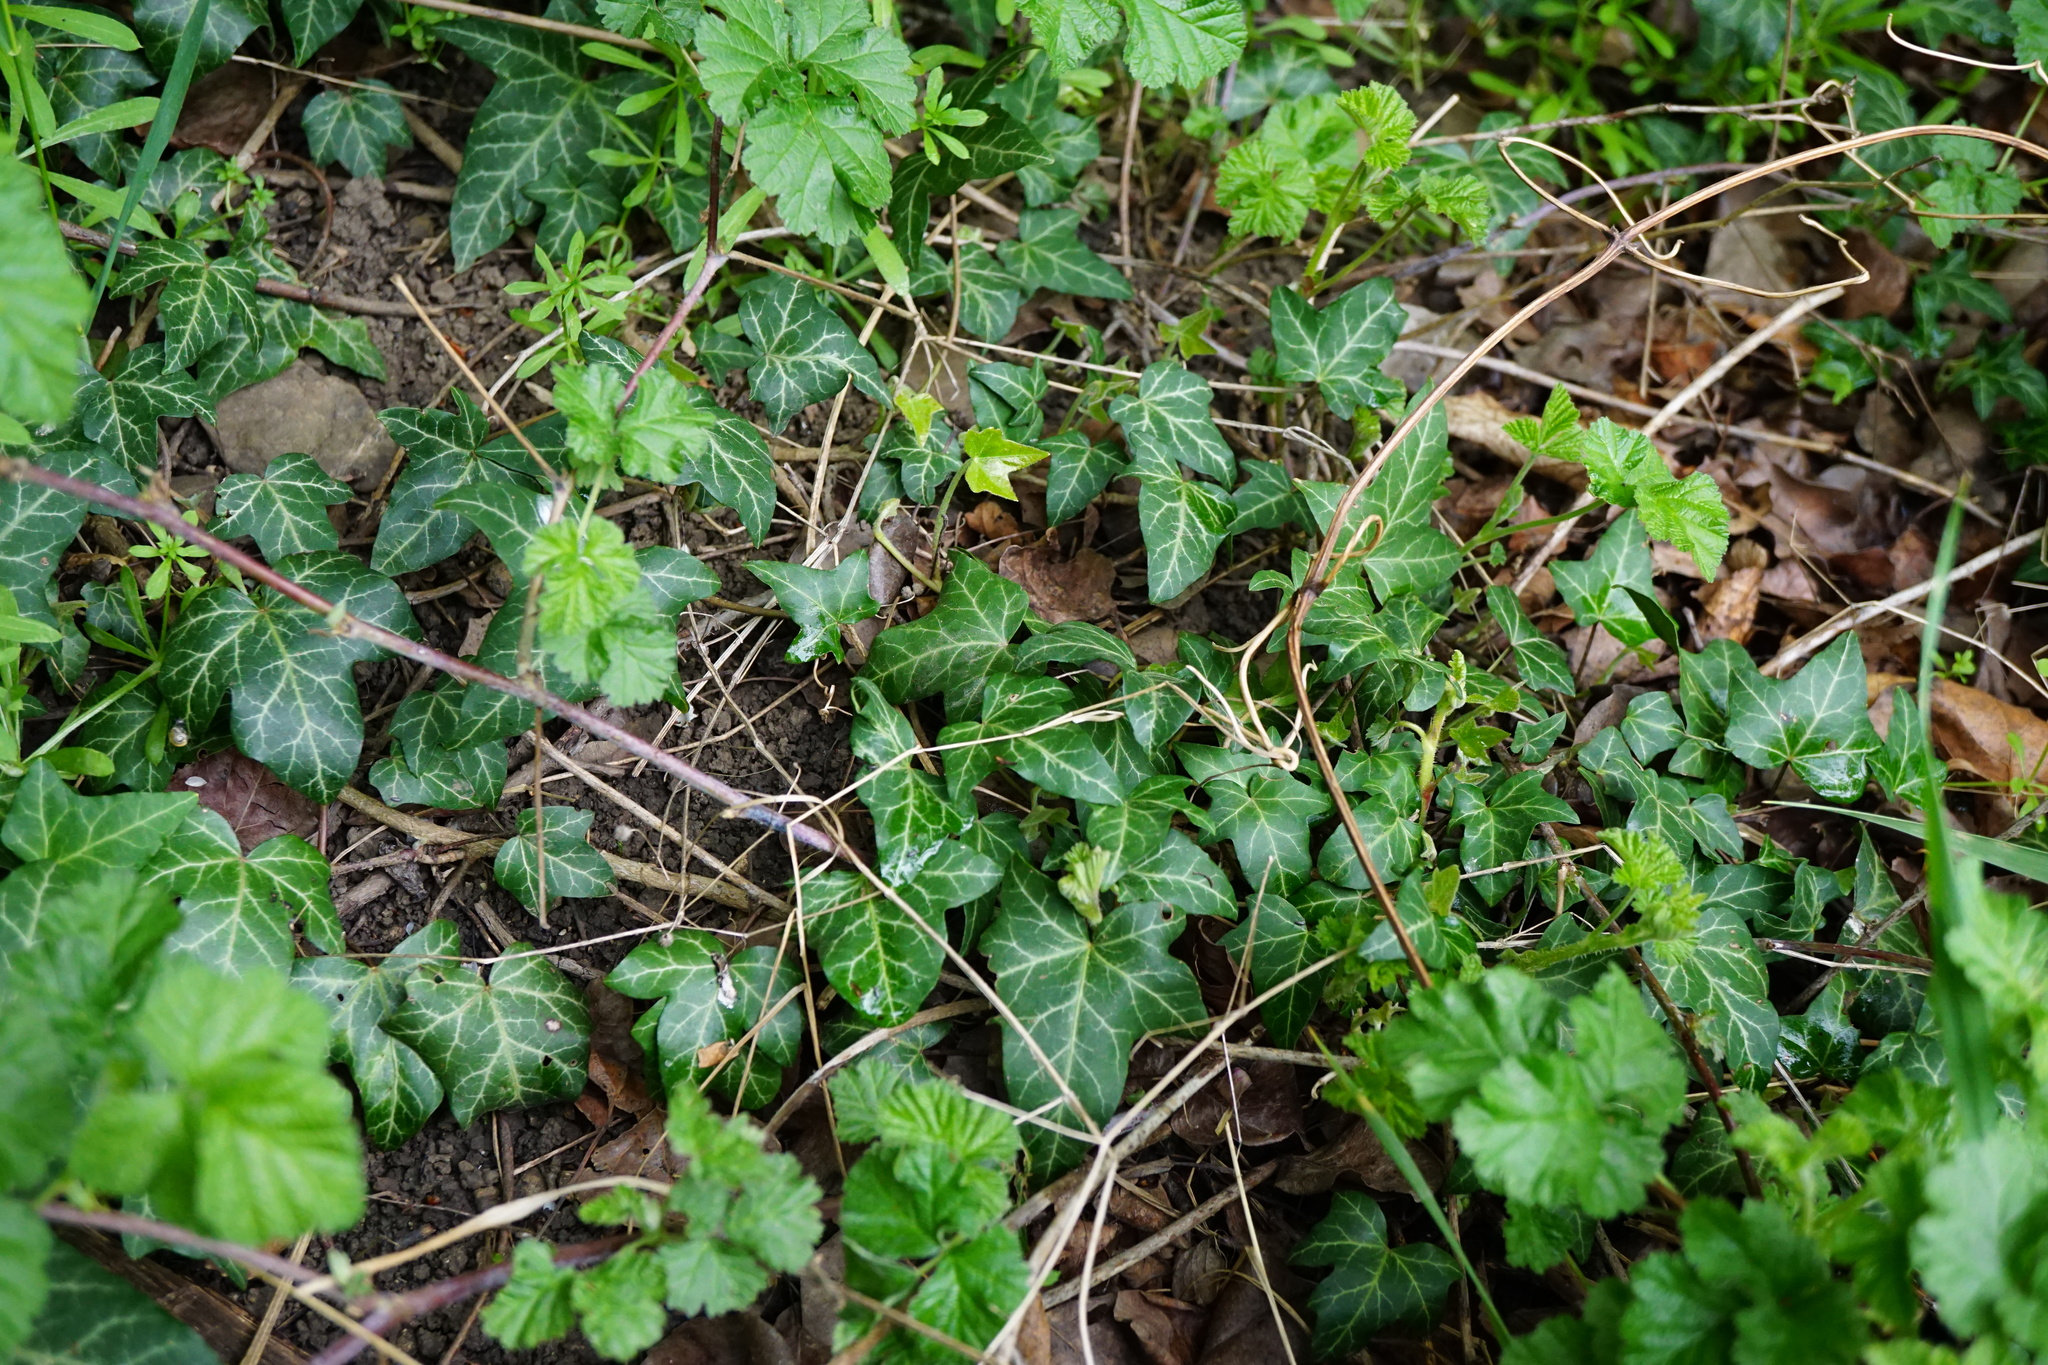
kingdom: Plantae
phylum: Tracheophyta
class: Magnoliopsida
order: Apiales
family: Araliaceae
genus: Hedera
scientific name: Hedera helix
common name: Ivy
